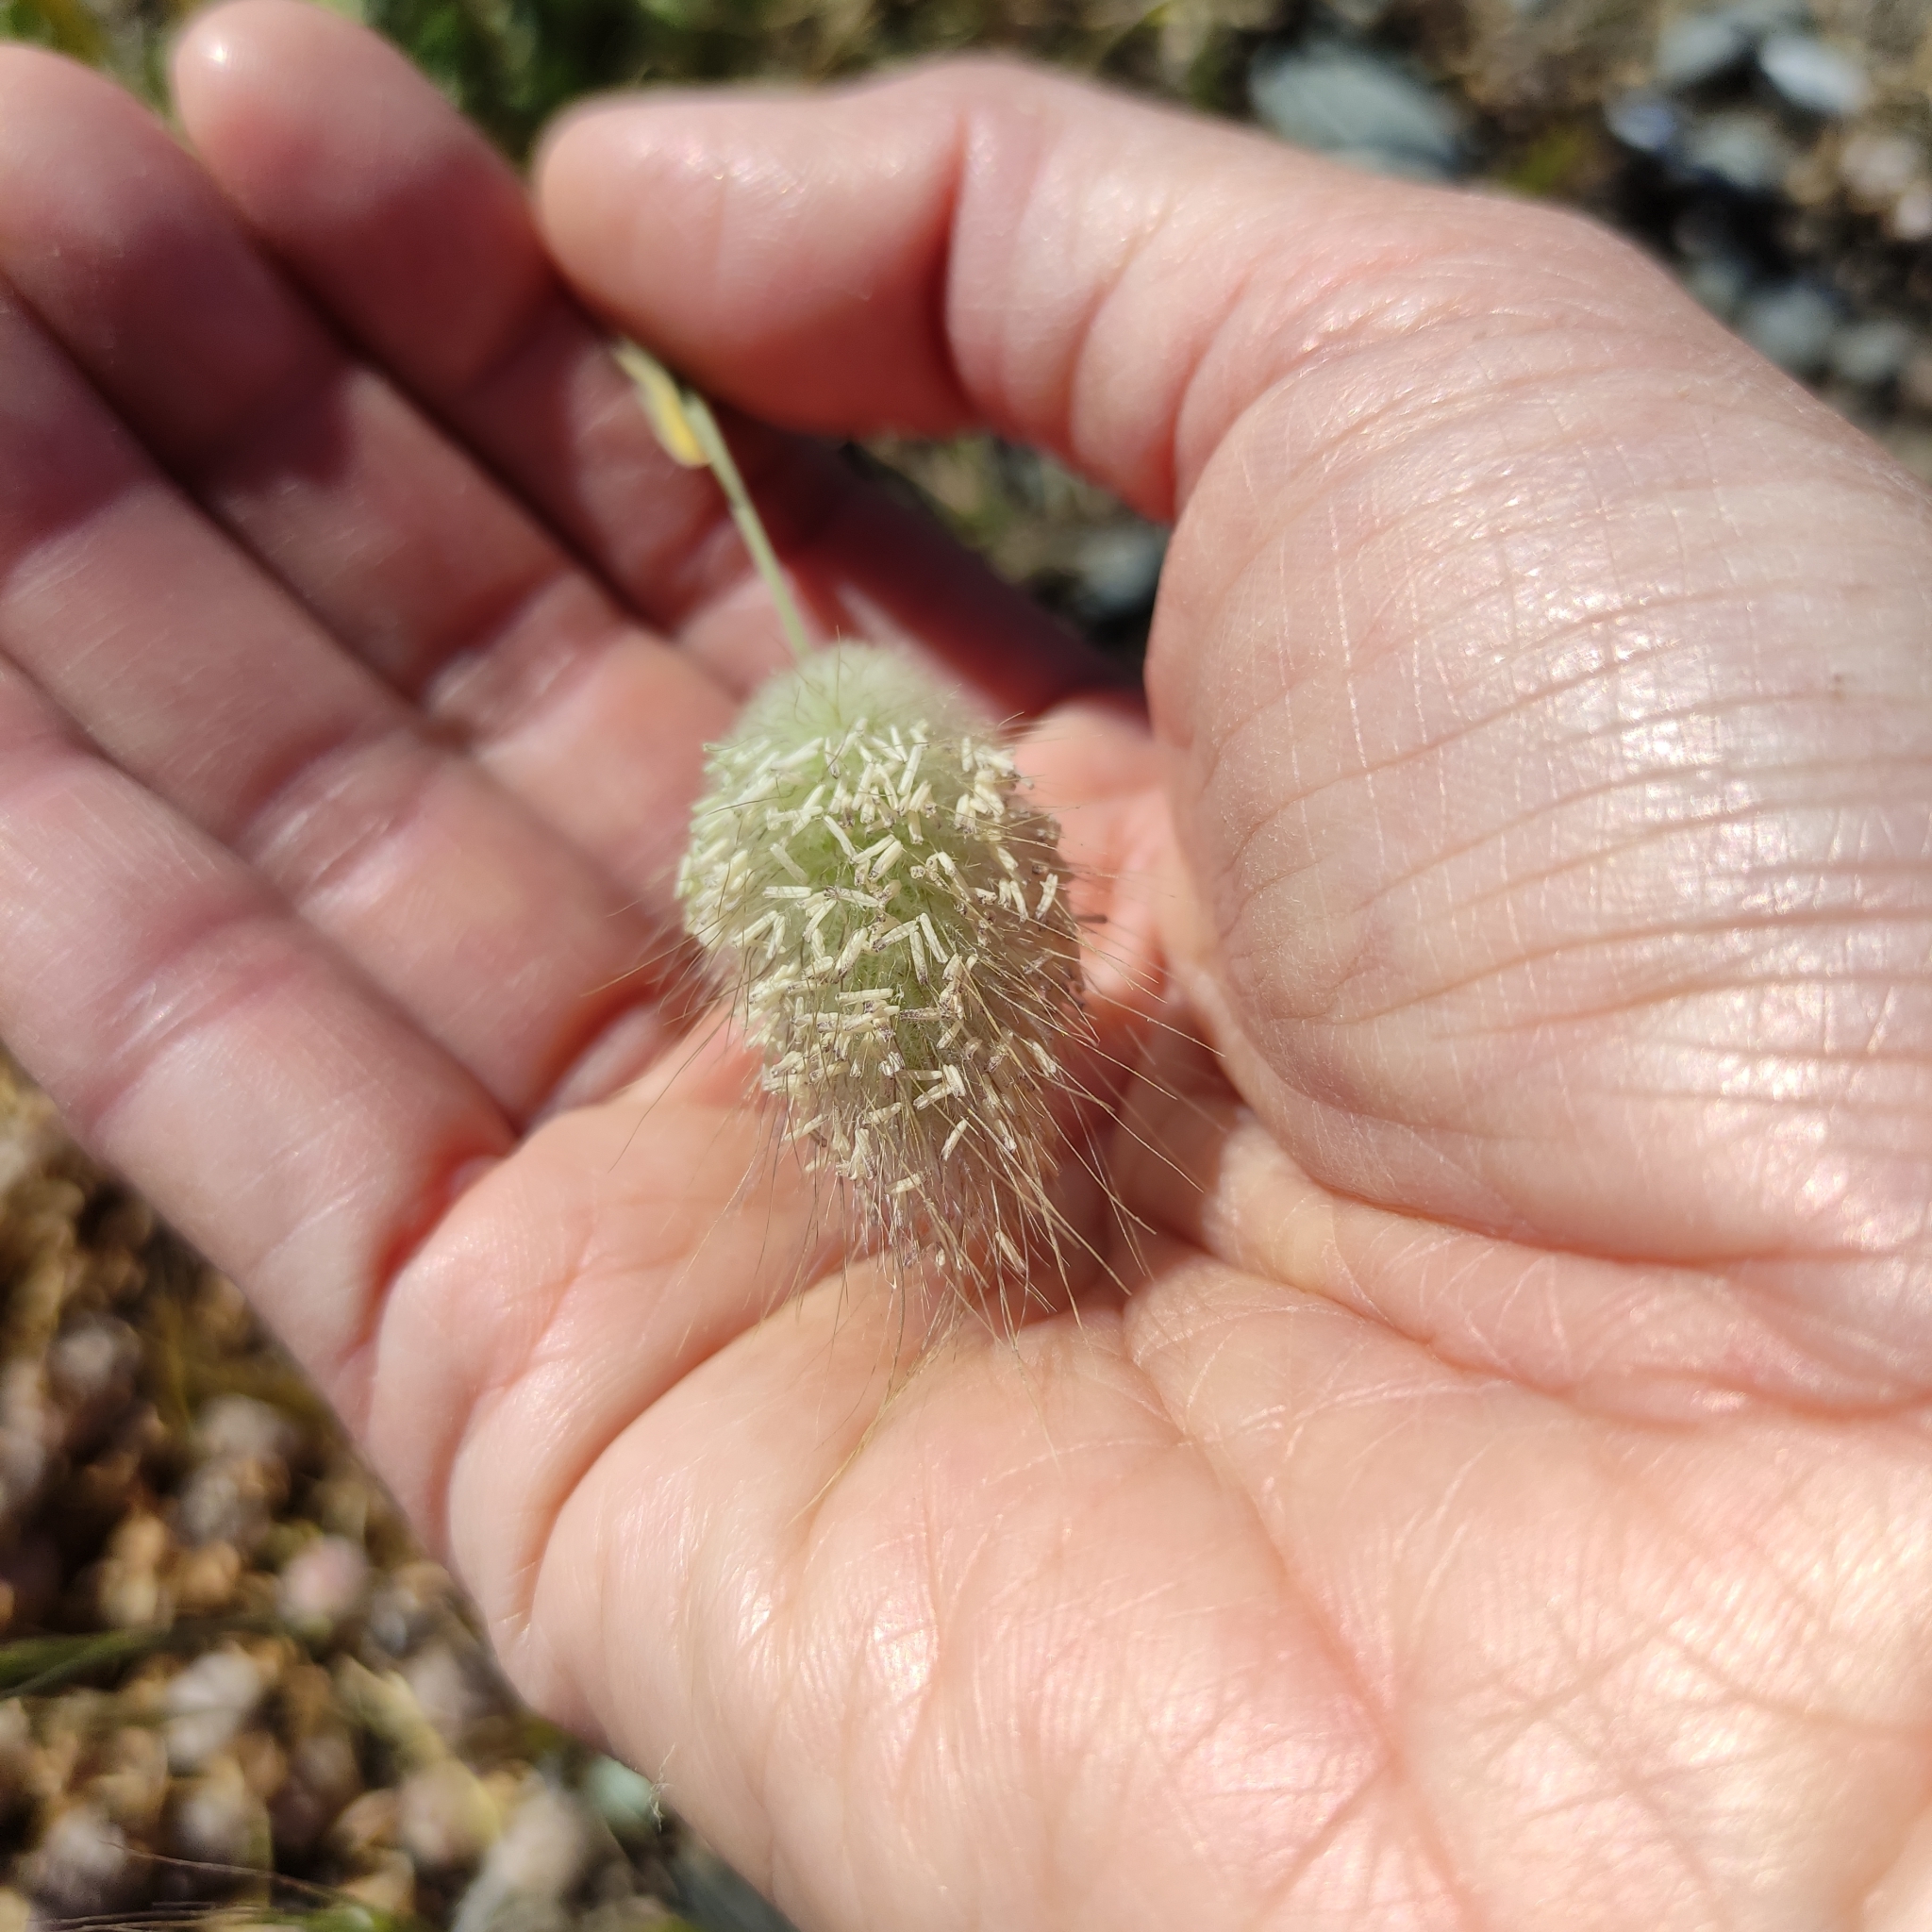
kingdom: Plantae
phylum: Tracheophyta
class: Liliopsida
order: Poales
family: Poaceae
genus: Lagurus
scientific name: Lagurus ovatus
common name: Hare's-tail
